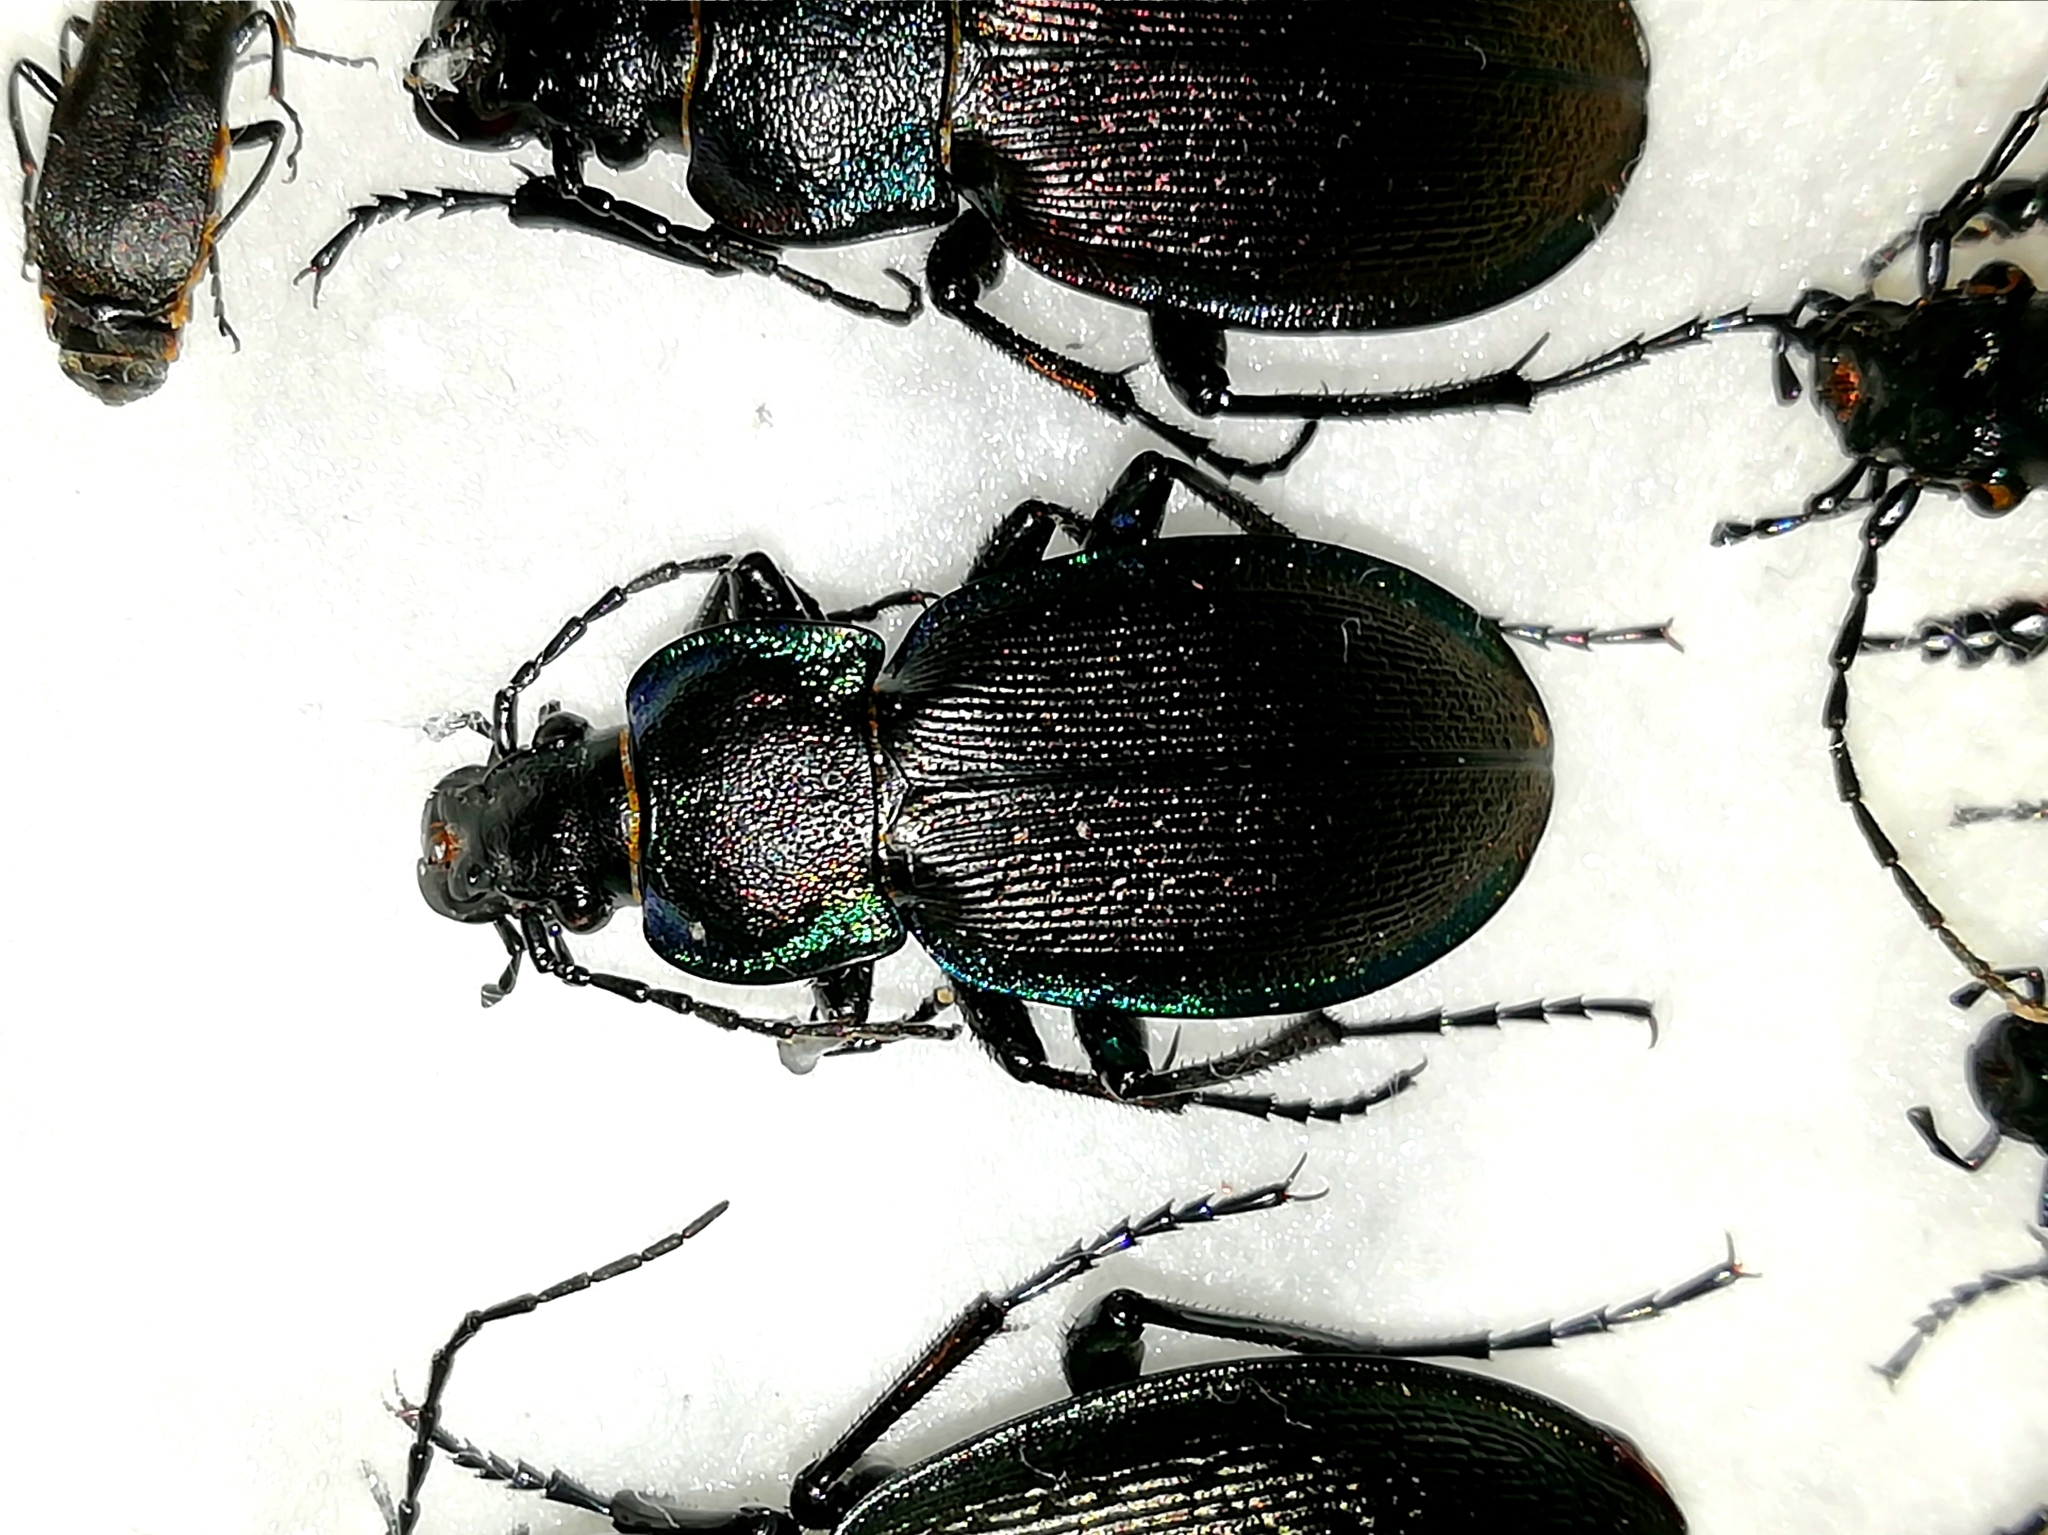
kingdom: Animalia
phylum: Arthropoda
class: Insecta
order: Coleoptera
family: Carabidae
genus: Carabus
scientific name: Carabus regalis
